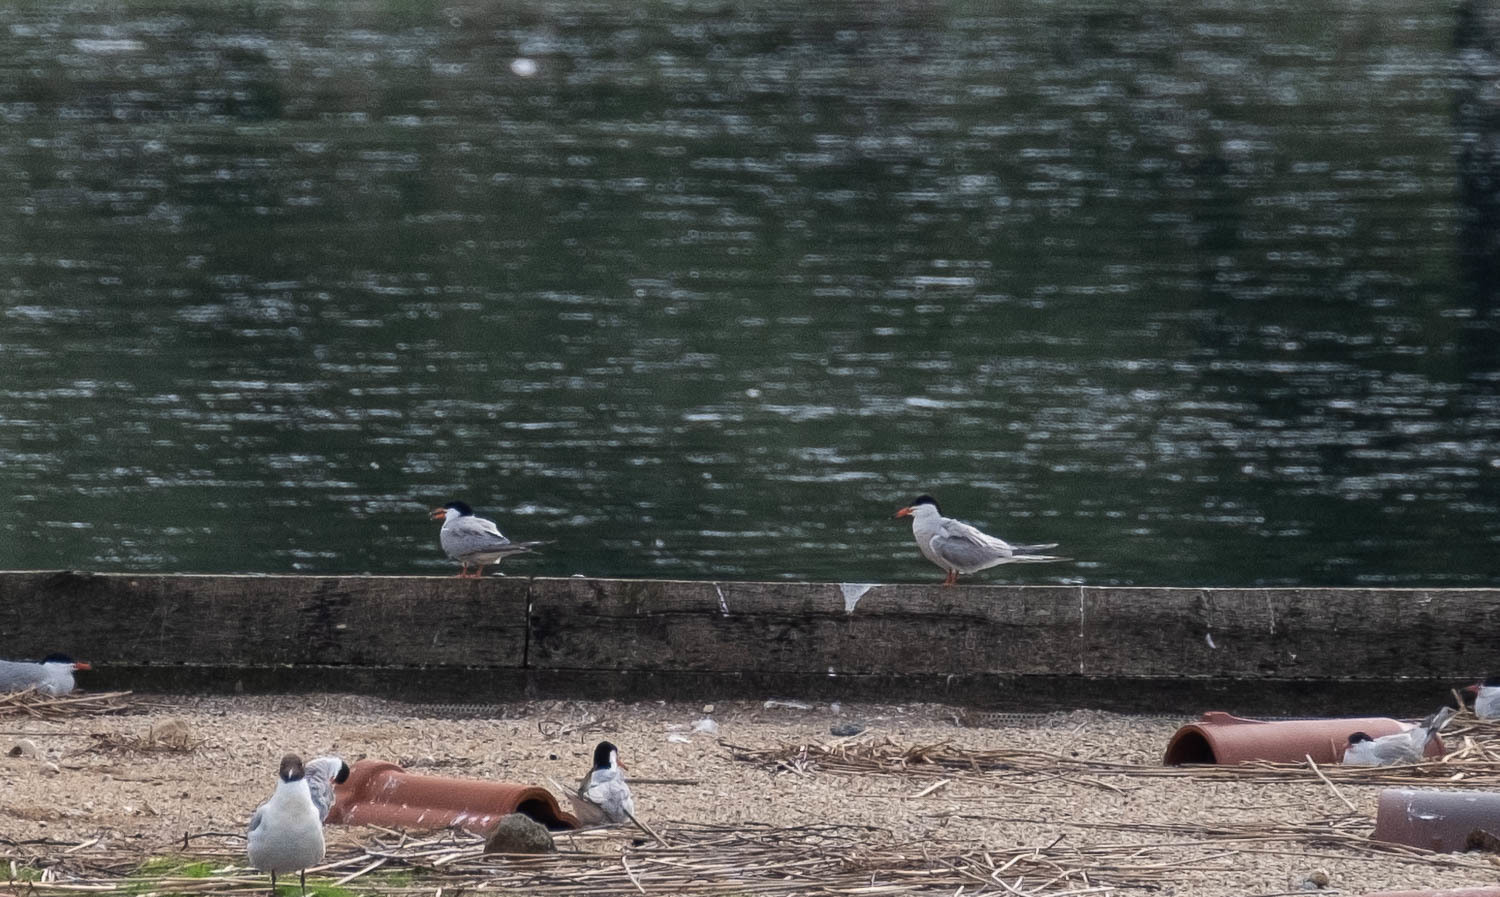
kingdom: Animalia
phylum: Chordata
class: Aves
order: Charadriiformes
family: Laridae
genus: Sterna
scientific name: Sterna hirundo
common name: Common tern
